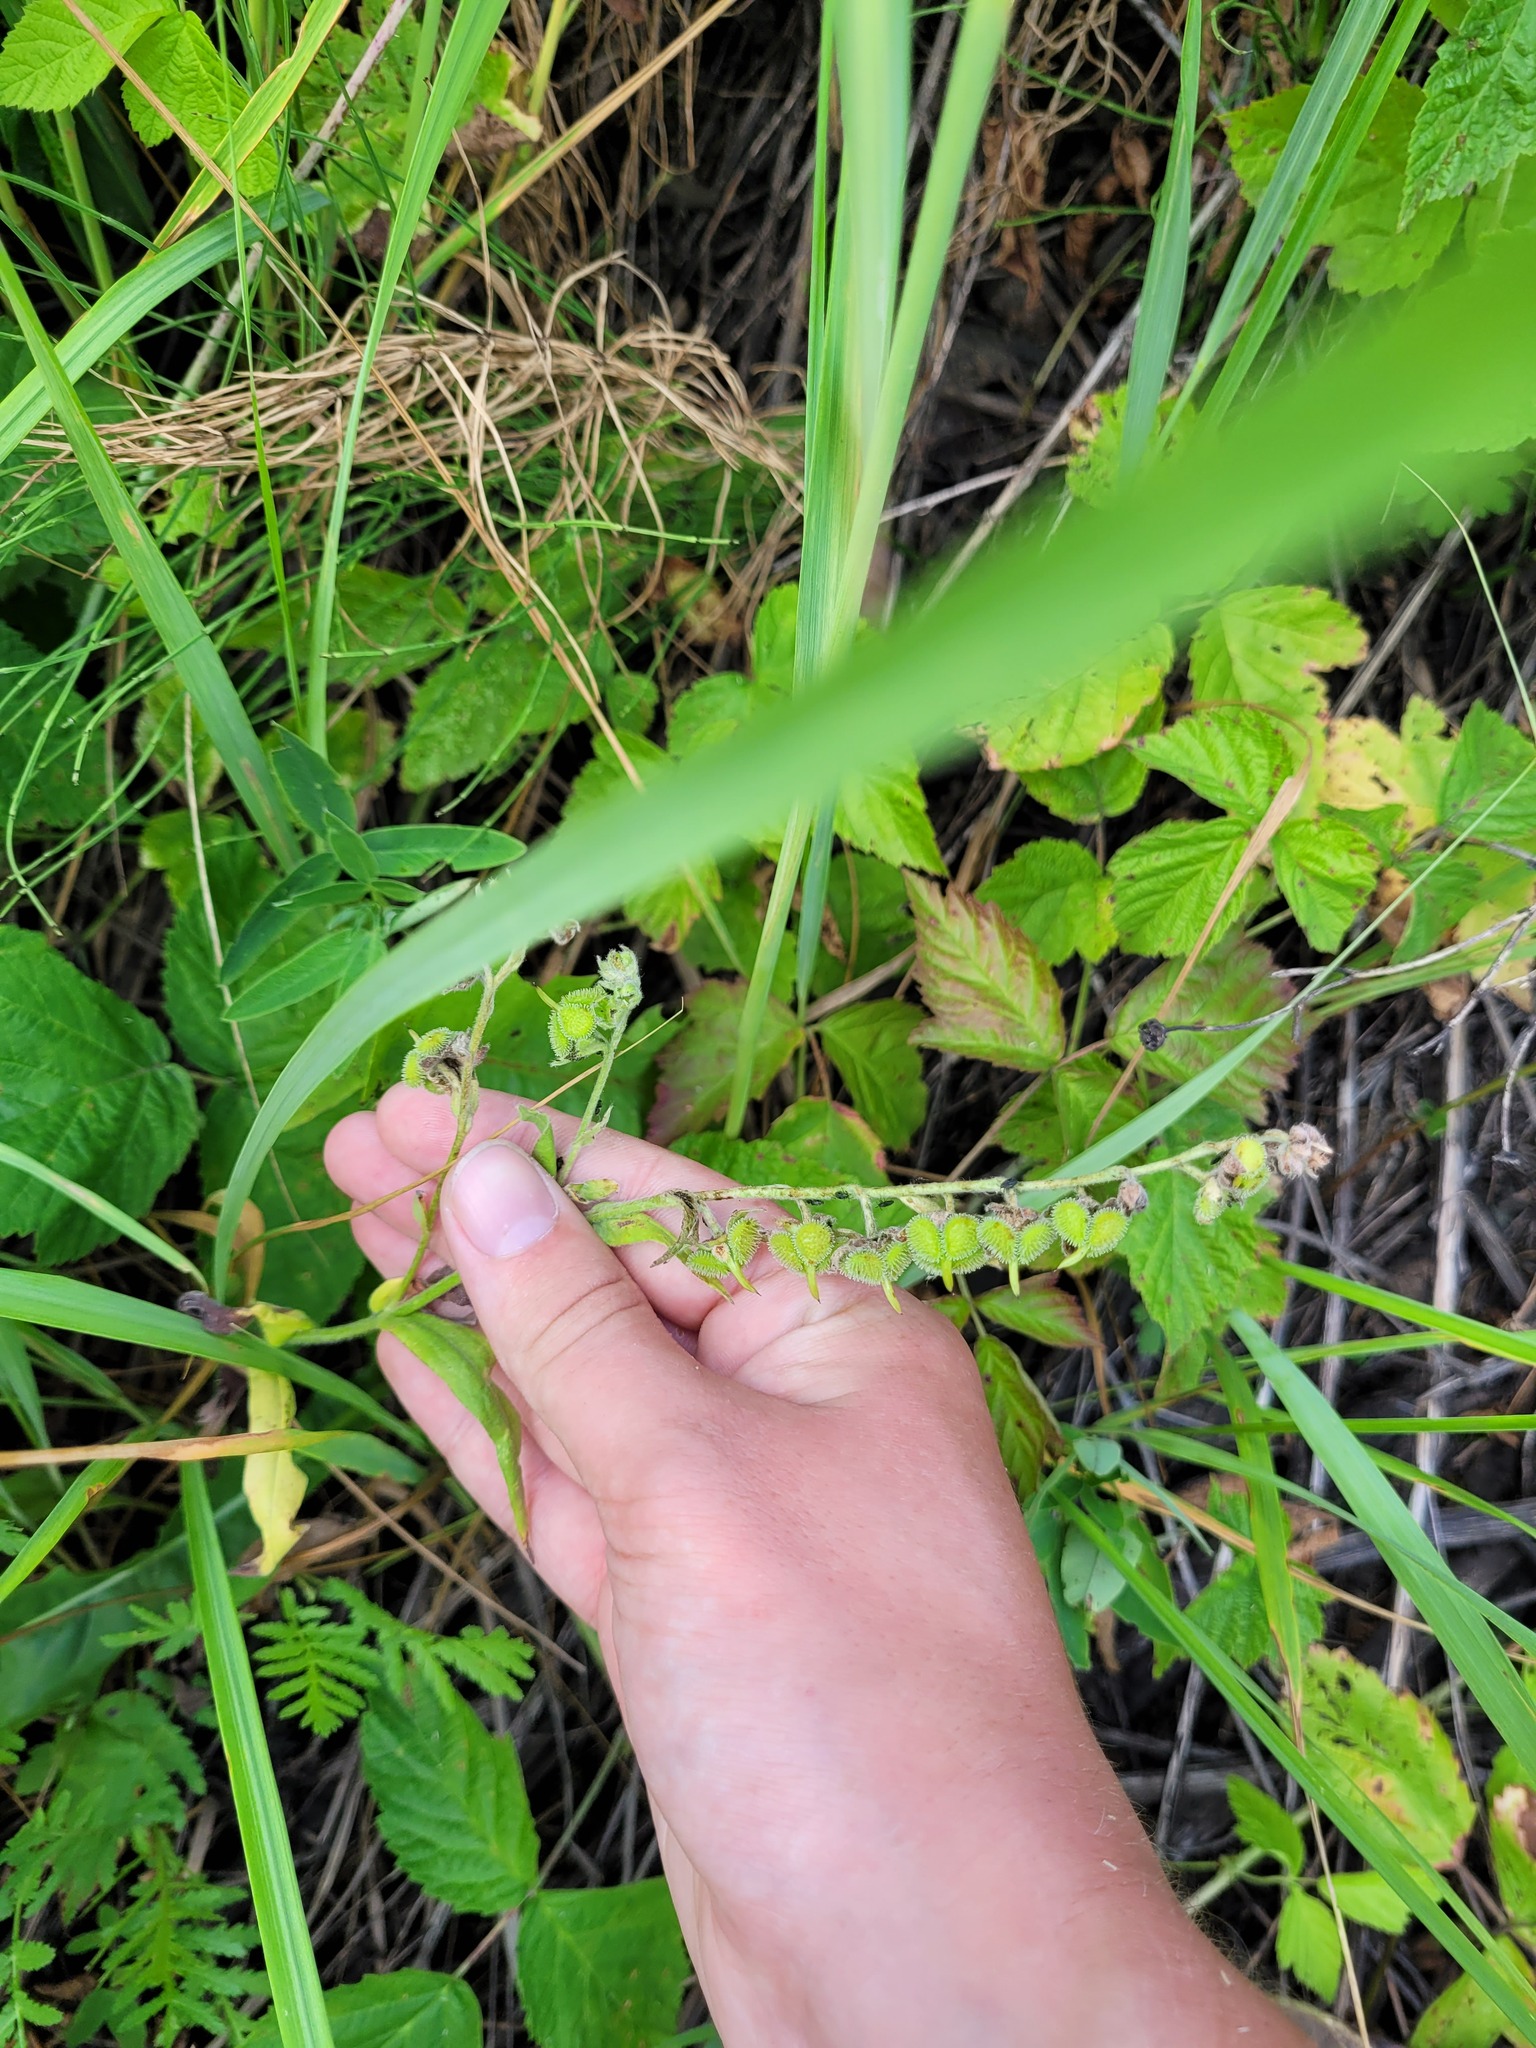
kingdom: Plantae
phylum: Tracheophyta
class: Magnoliopsida
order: Boraginales
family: Boraginaceae
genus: Cynoglossum
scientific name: Cynoglossum officinale
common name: Hound's-tongue
